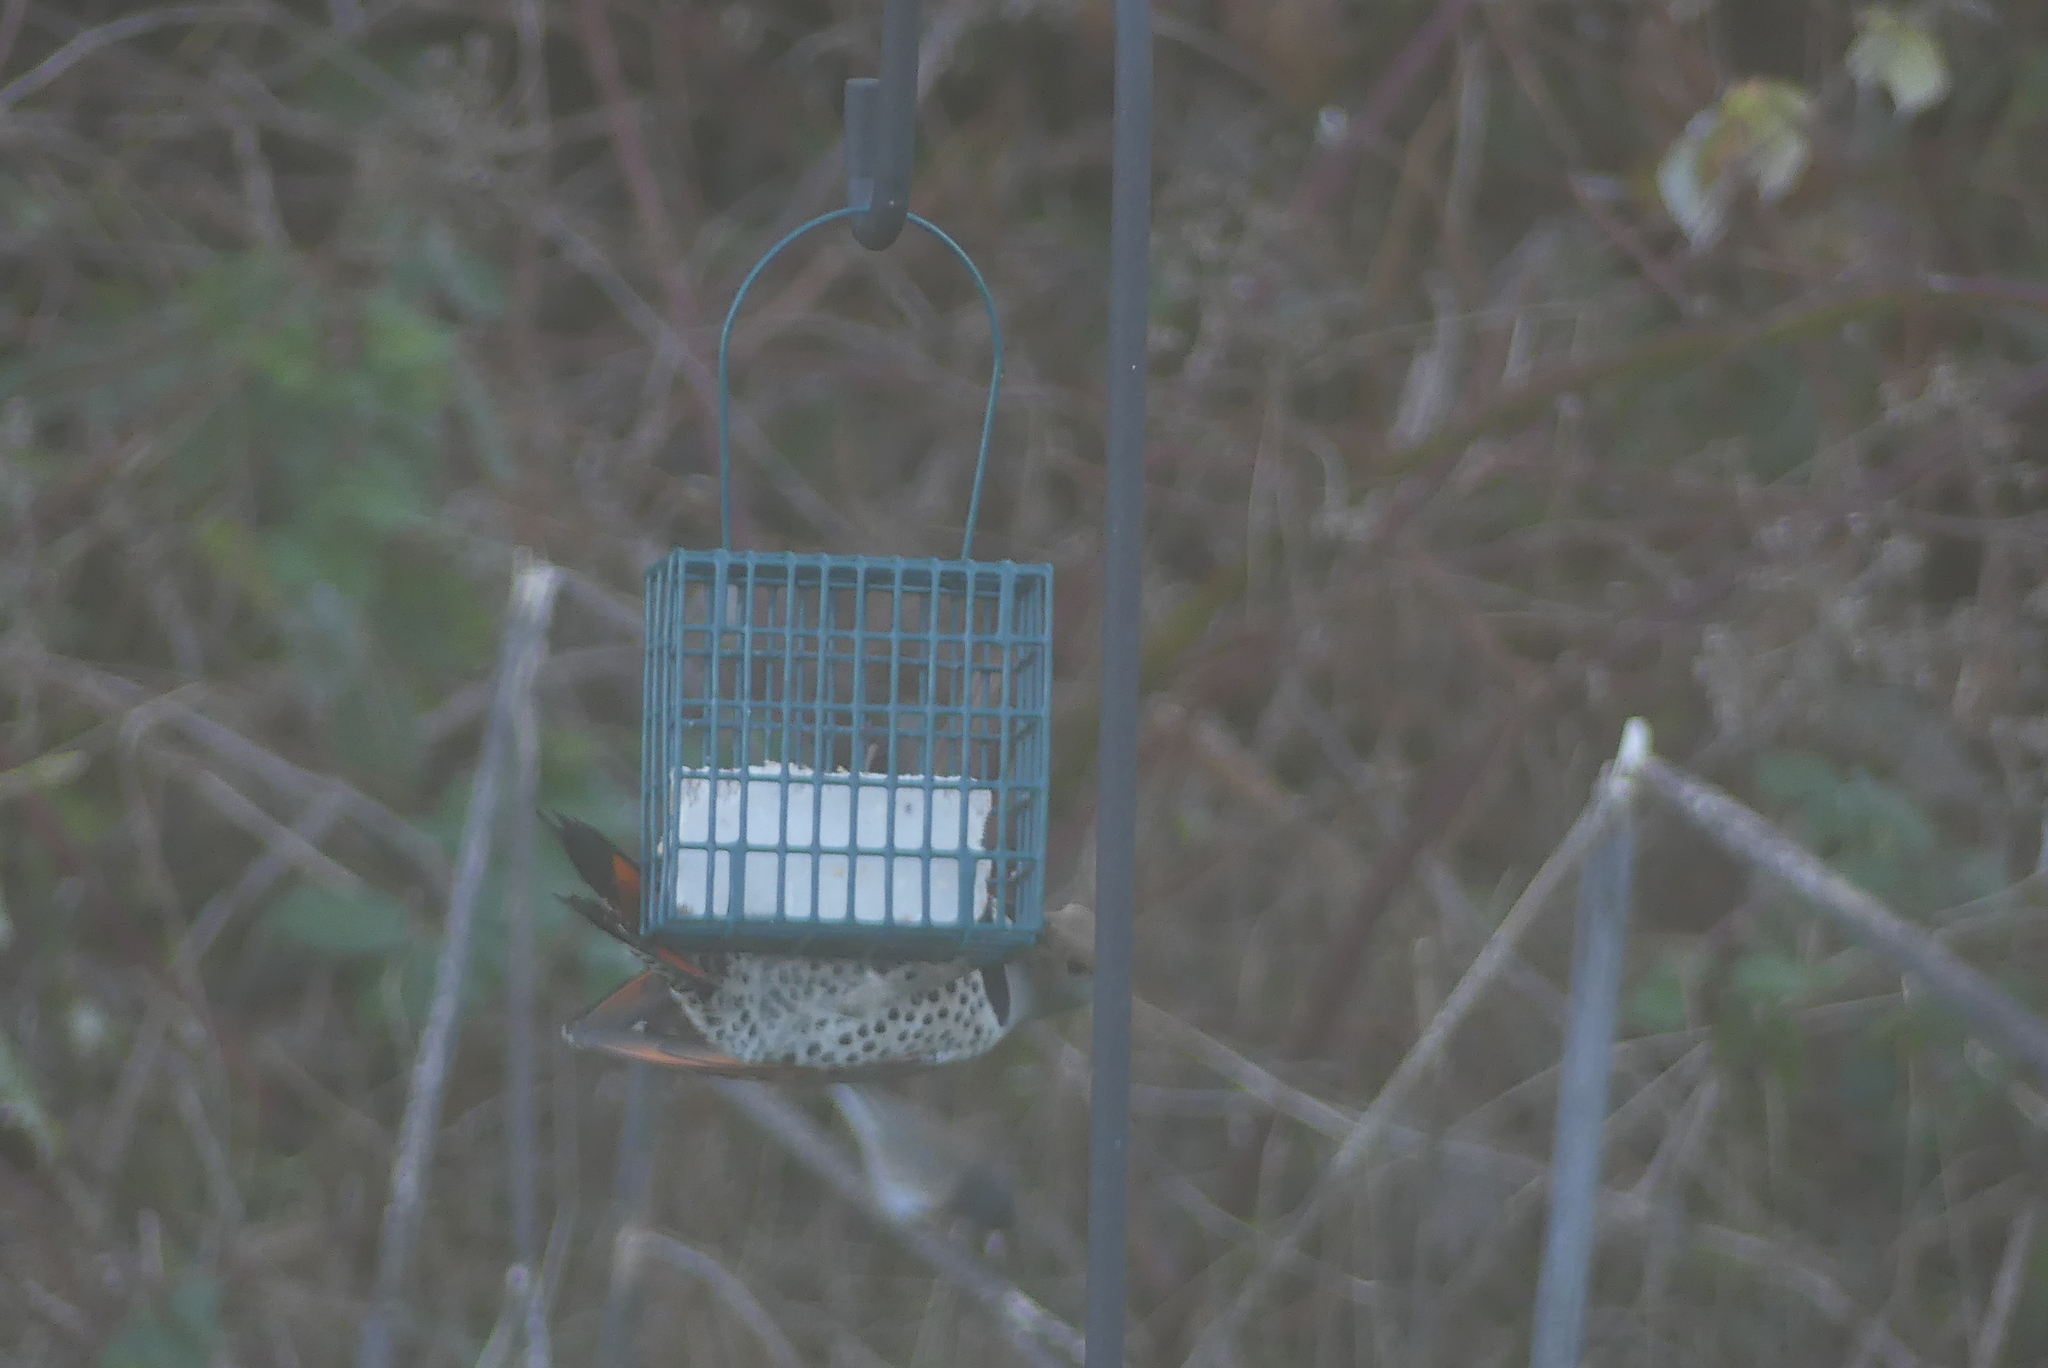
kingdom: Animalia
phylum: Chordata
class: Aves
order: Piciformes
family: Picidae
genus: Colaptes
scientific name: Colaptes auratus
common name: Northern flicker
